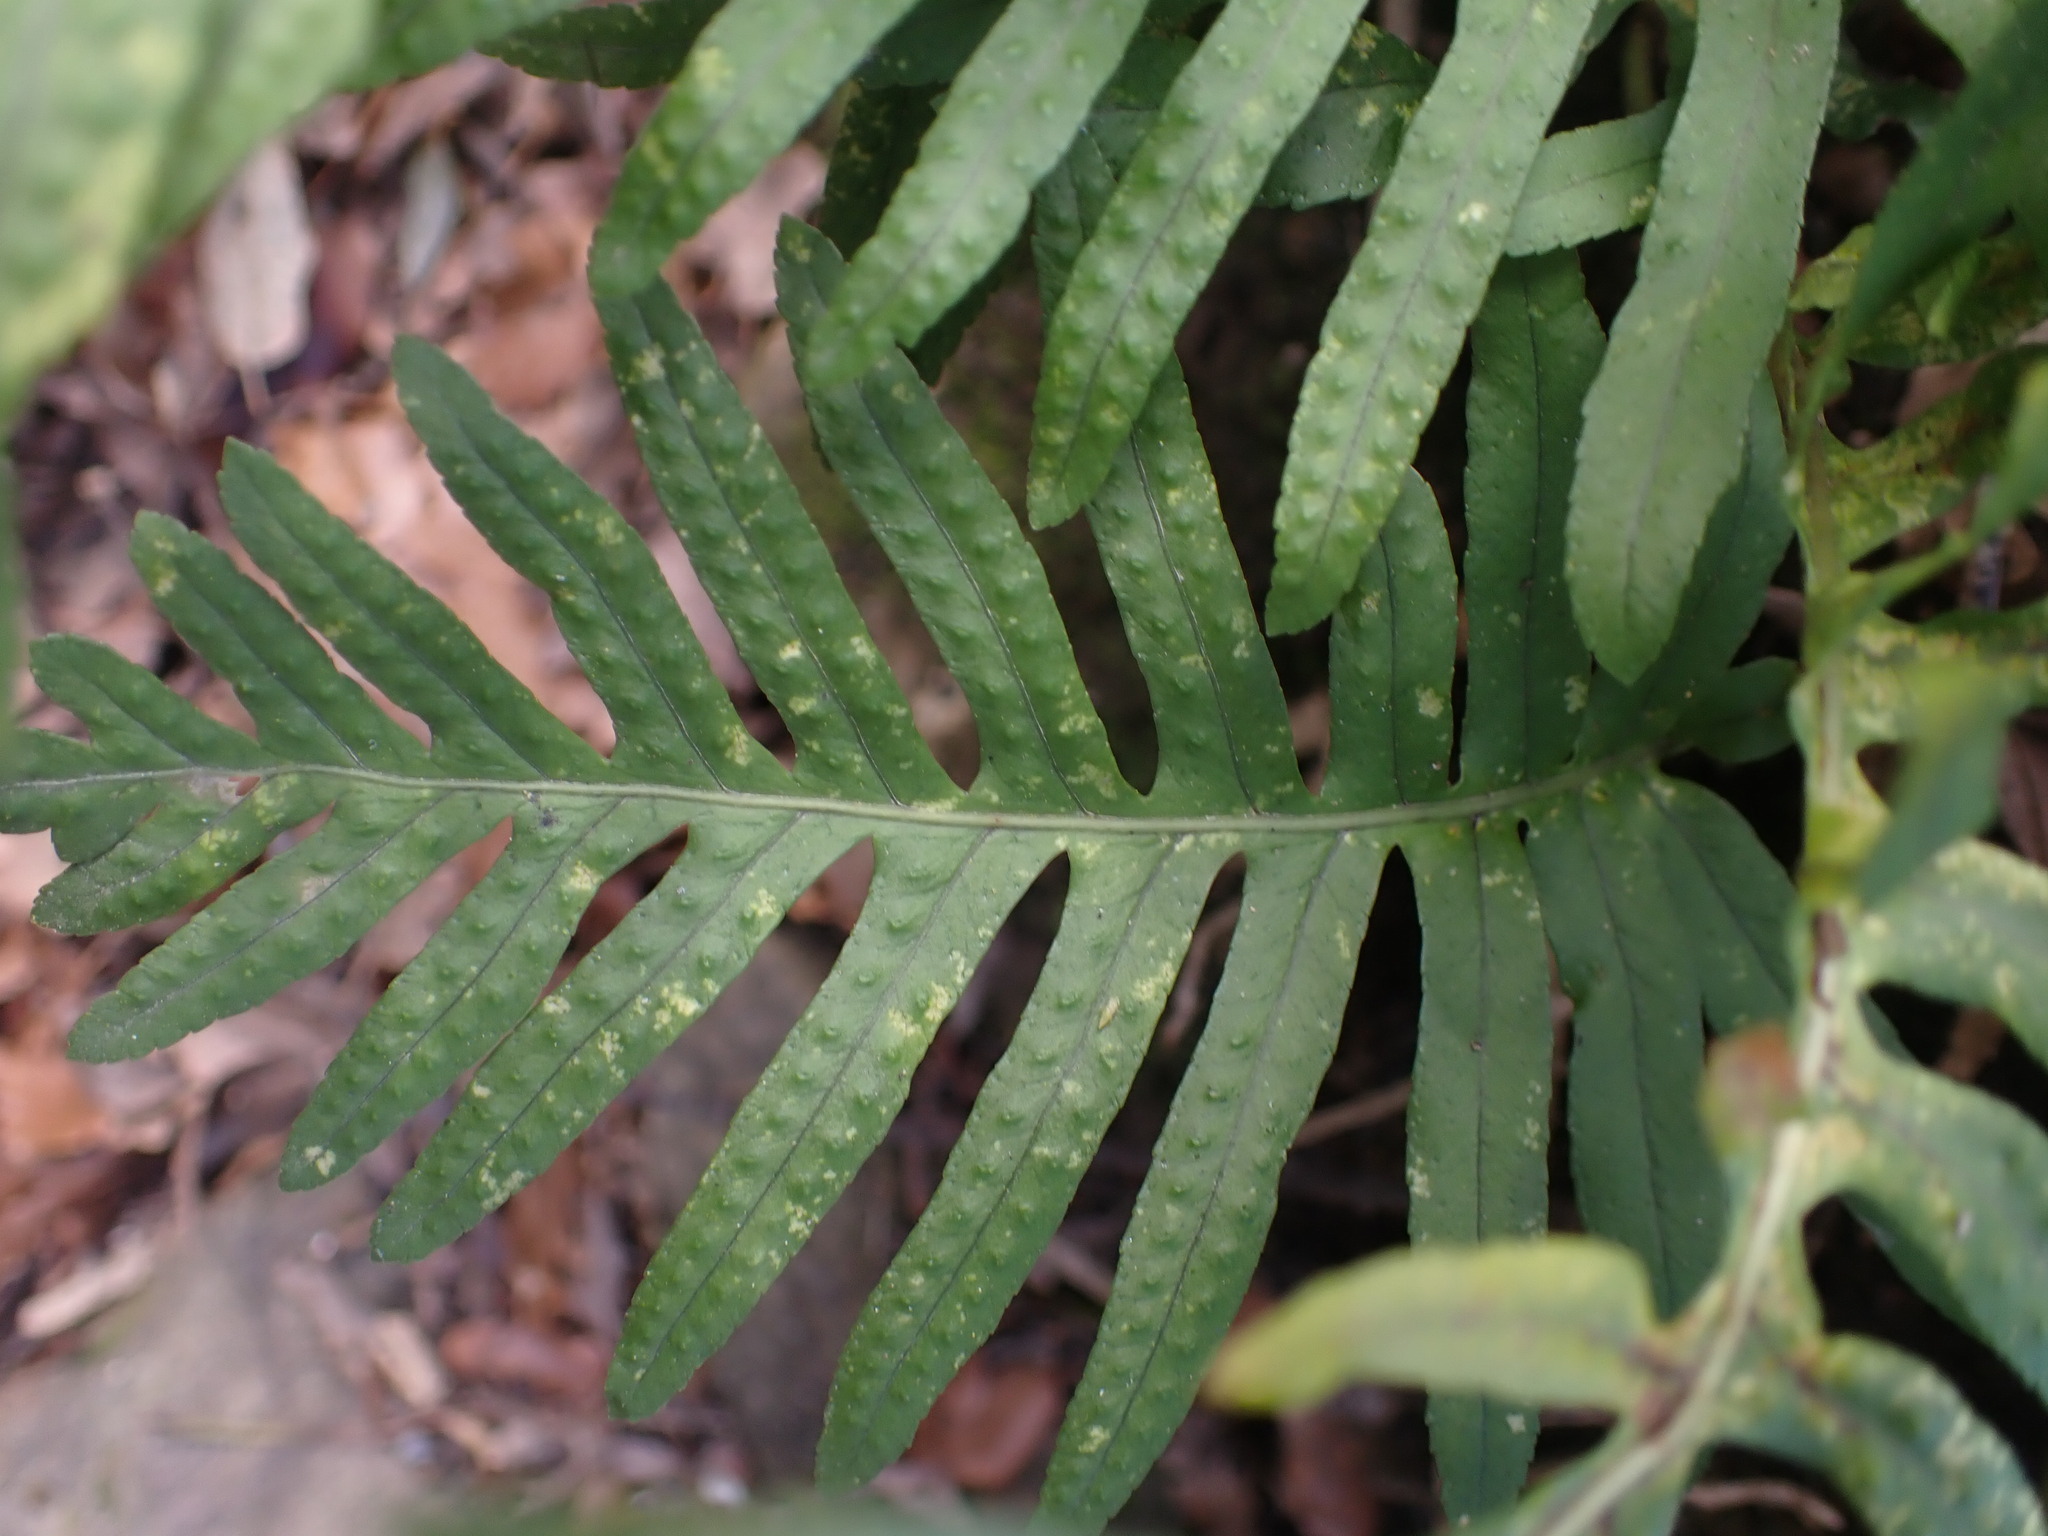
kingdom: Plantae
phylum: Tracheophyta
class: Polypodiopsida
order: Polypodiales
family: Polypodiaceae
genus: Polypodium
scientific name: Polypodium cambricum
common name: Southern polypody
